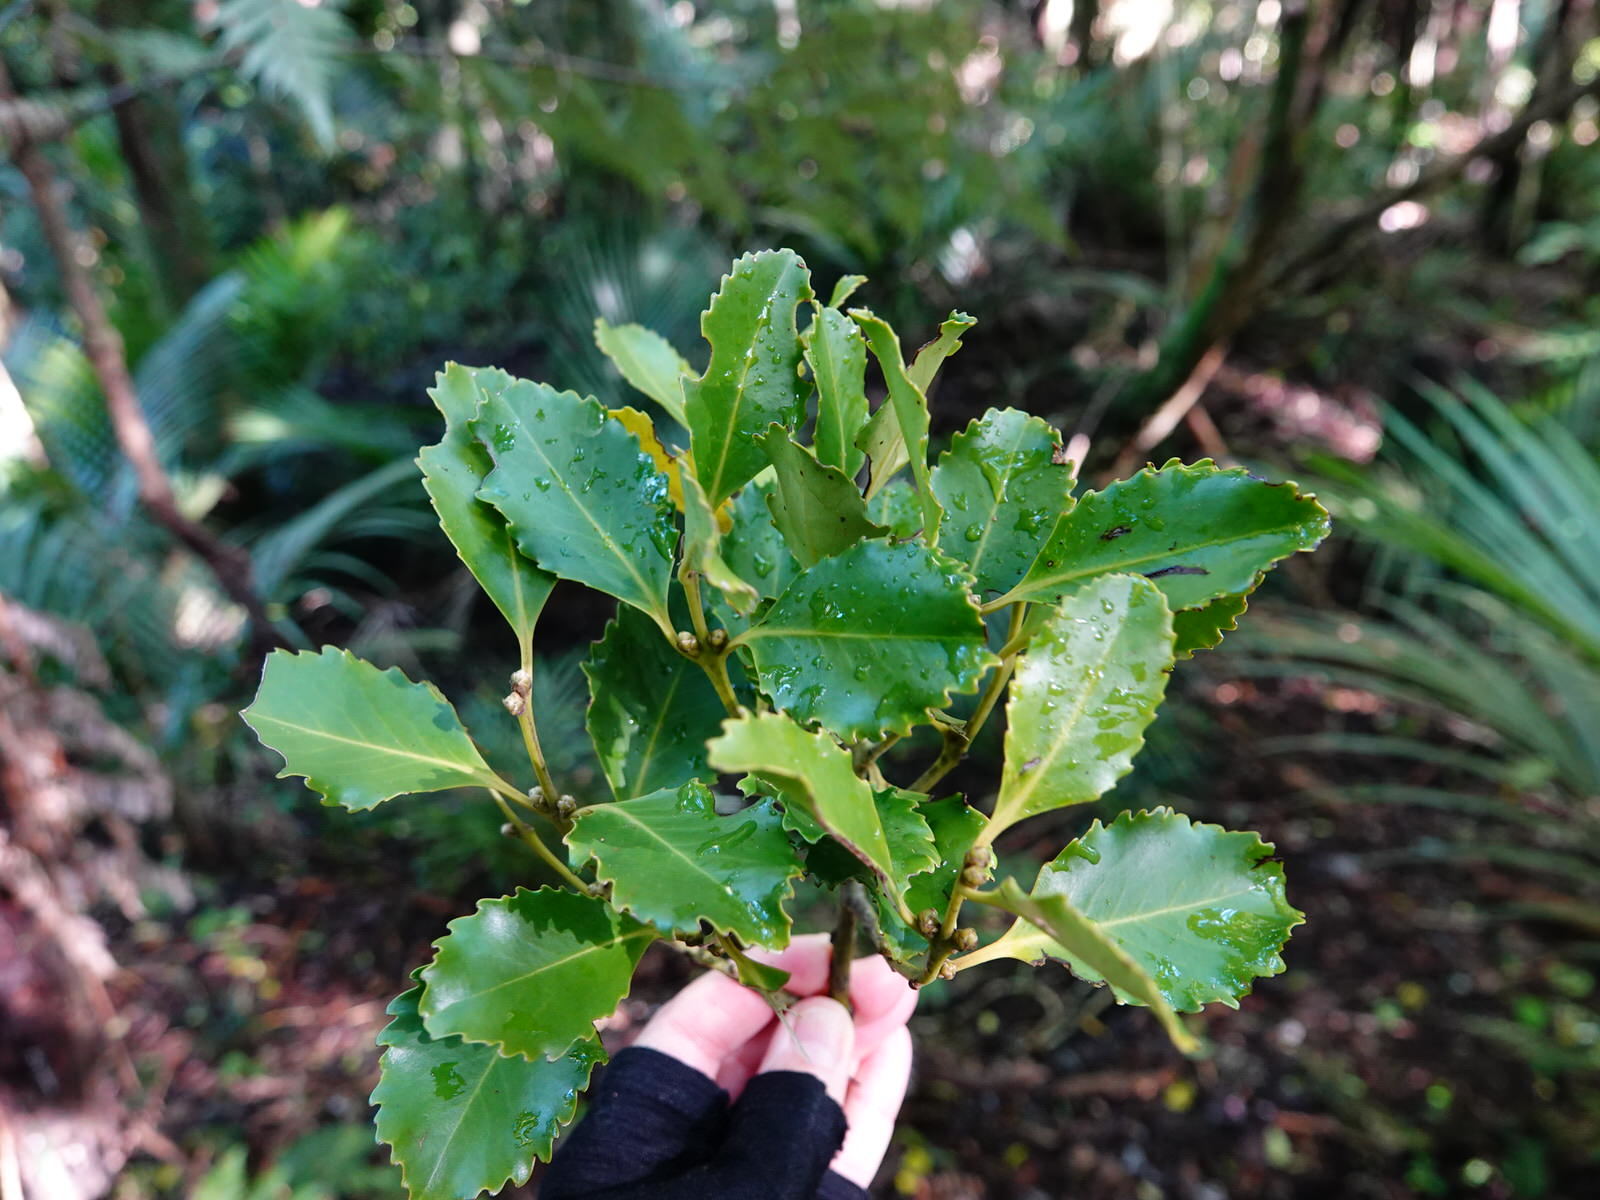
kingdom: Plantae
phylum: Tracheophyta
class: Magnoliopsida
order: Laurales
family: Atherospermataceae
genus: Laurelia
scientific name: Laurelia novae-zelandiae
